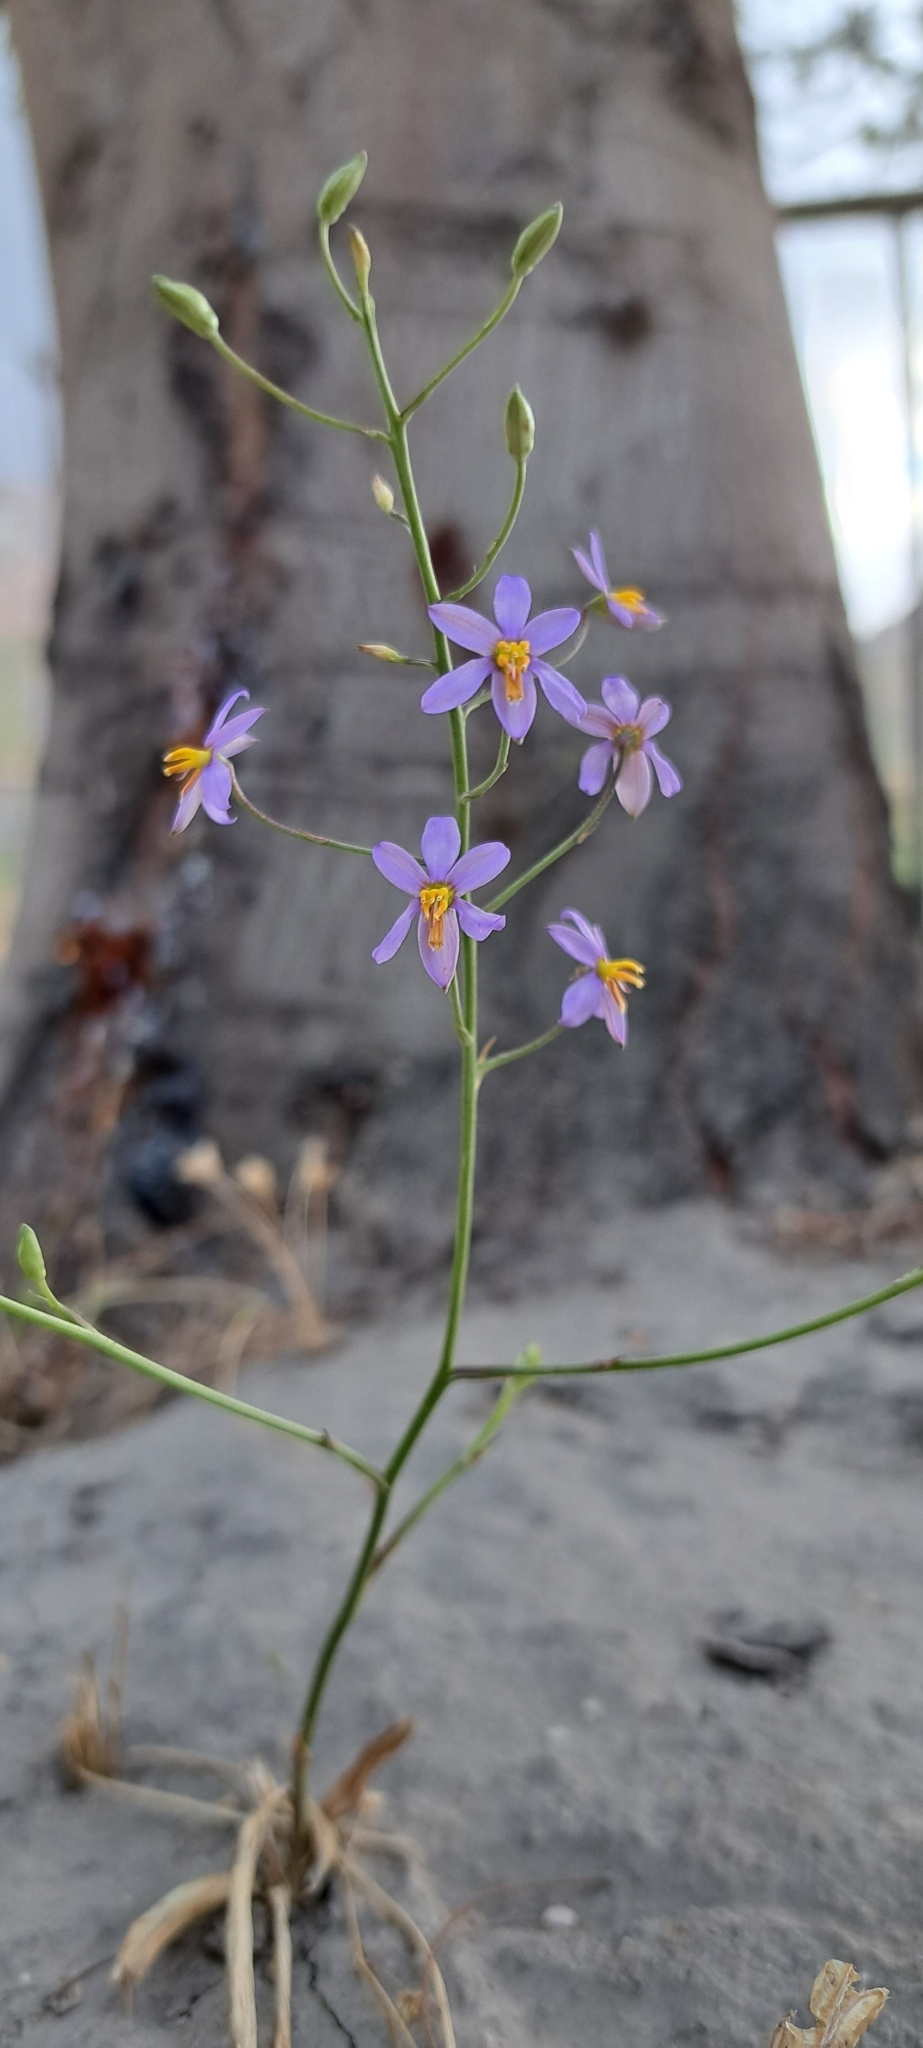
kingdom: Plantae
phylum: Tracheophyta
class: Liliopsida
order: Asparagales
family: Tecophilaeaceae
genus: Cyanella
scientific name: Cyanella hyacinthoides
